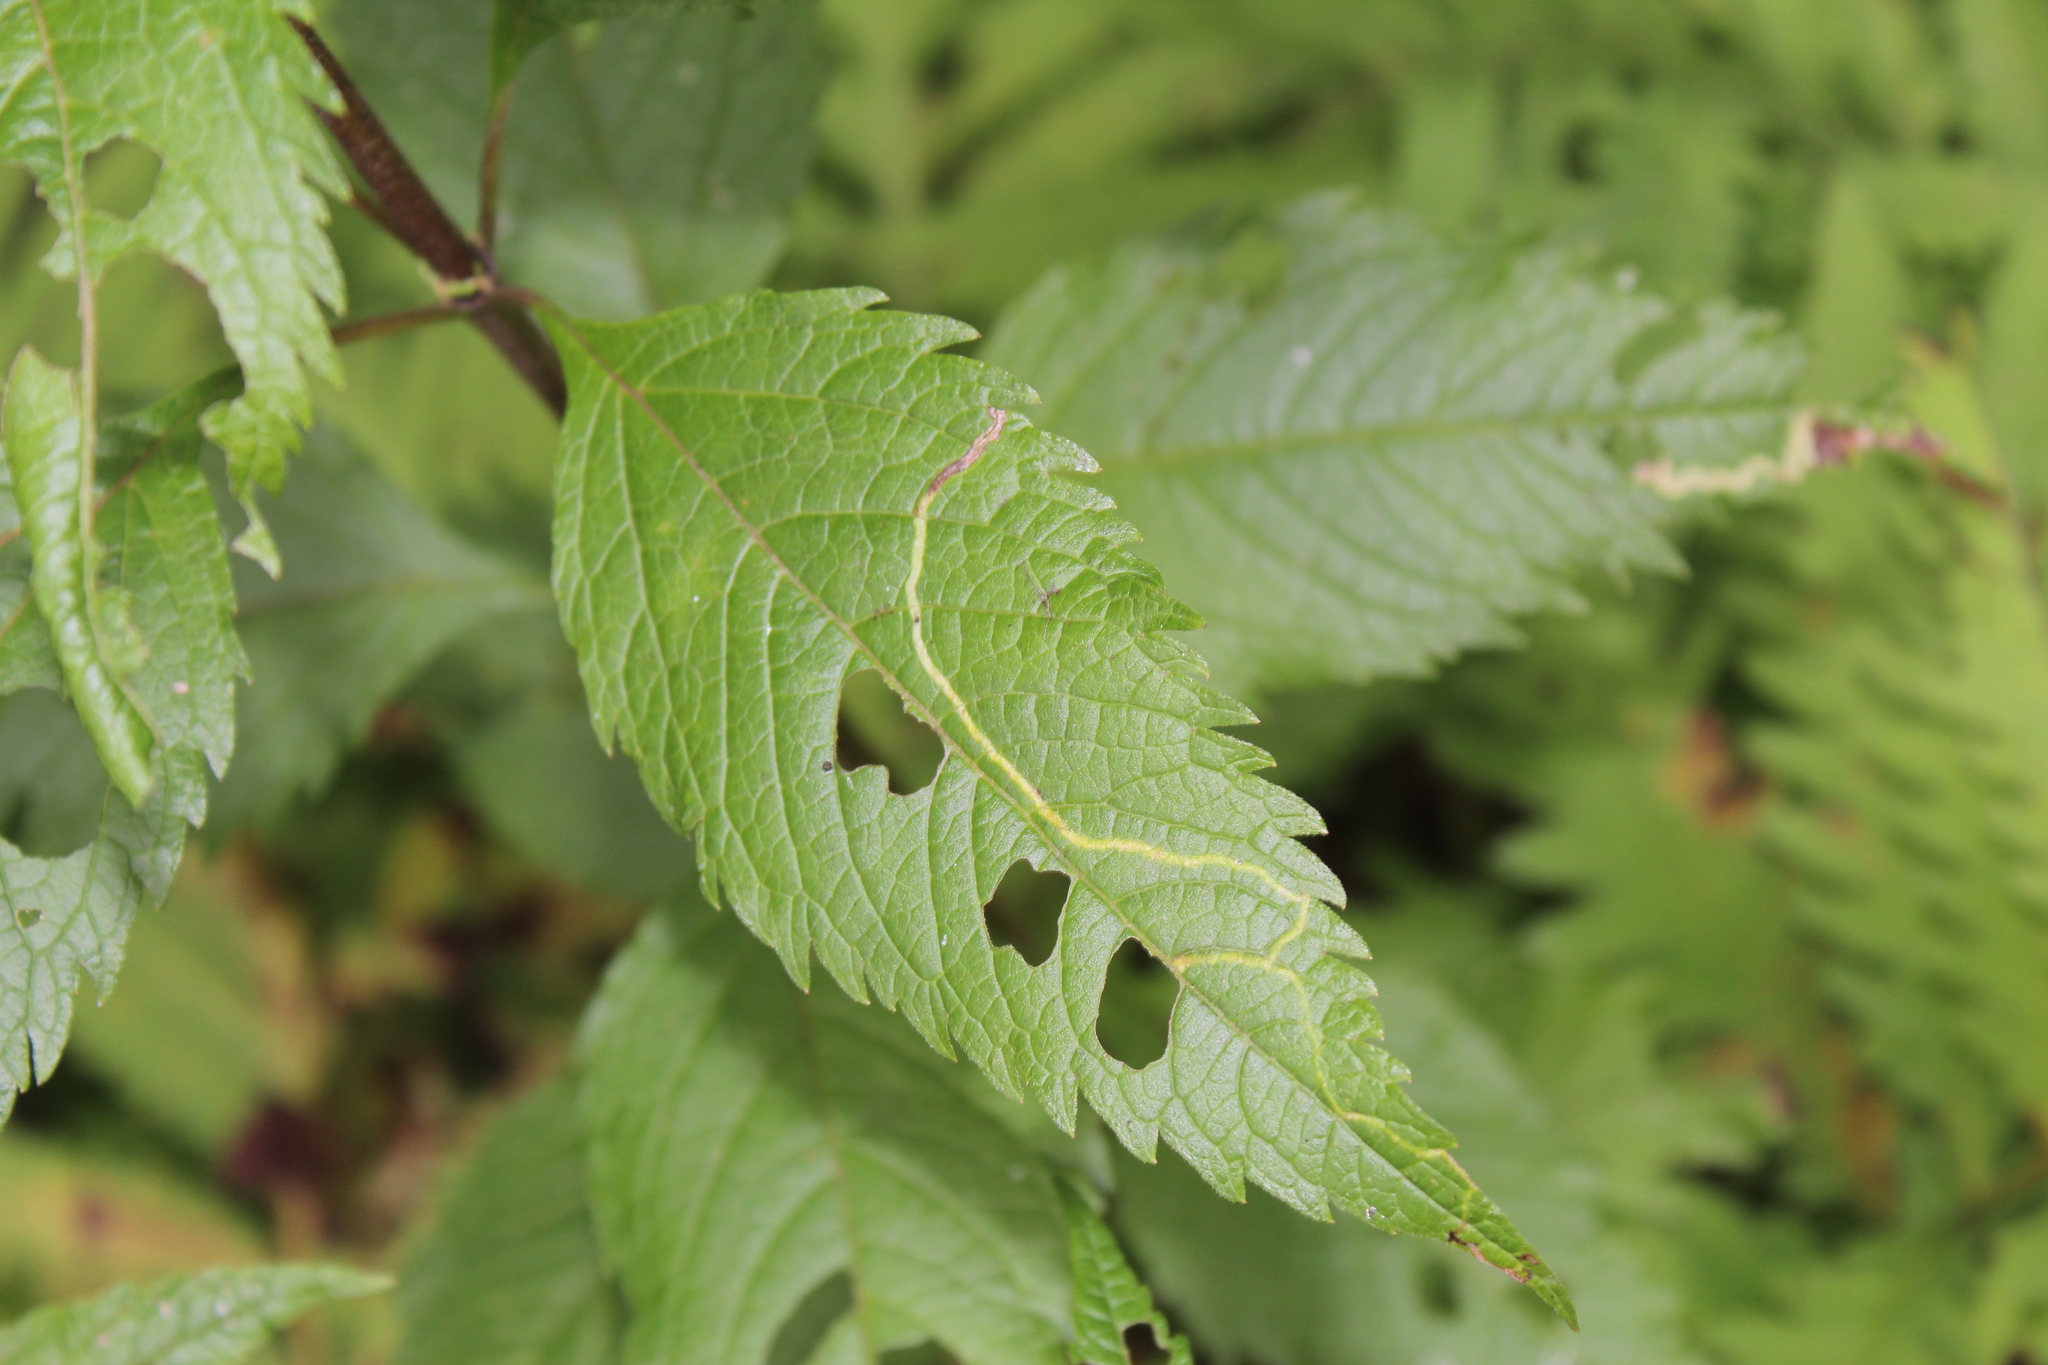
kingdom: Animalia
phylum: Arthropoda
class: Insecta
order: Diptera
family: Agromyzidae
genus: Liriomyza
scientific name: Liriomyza cracentis
